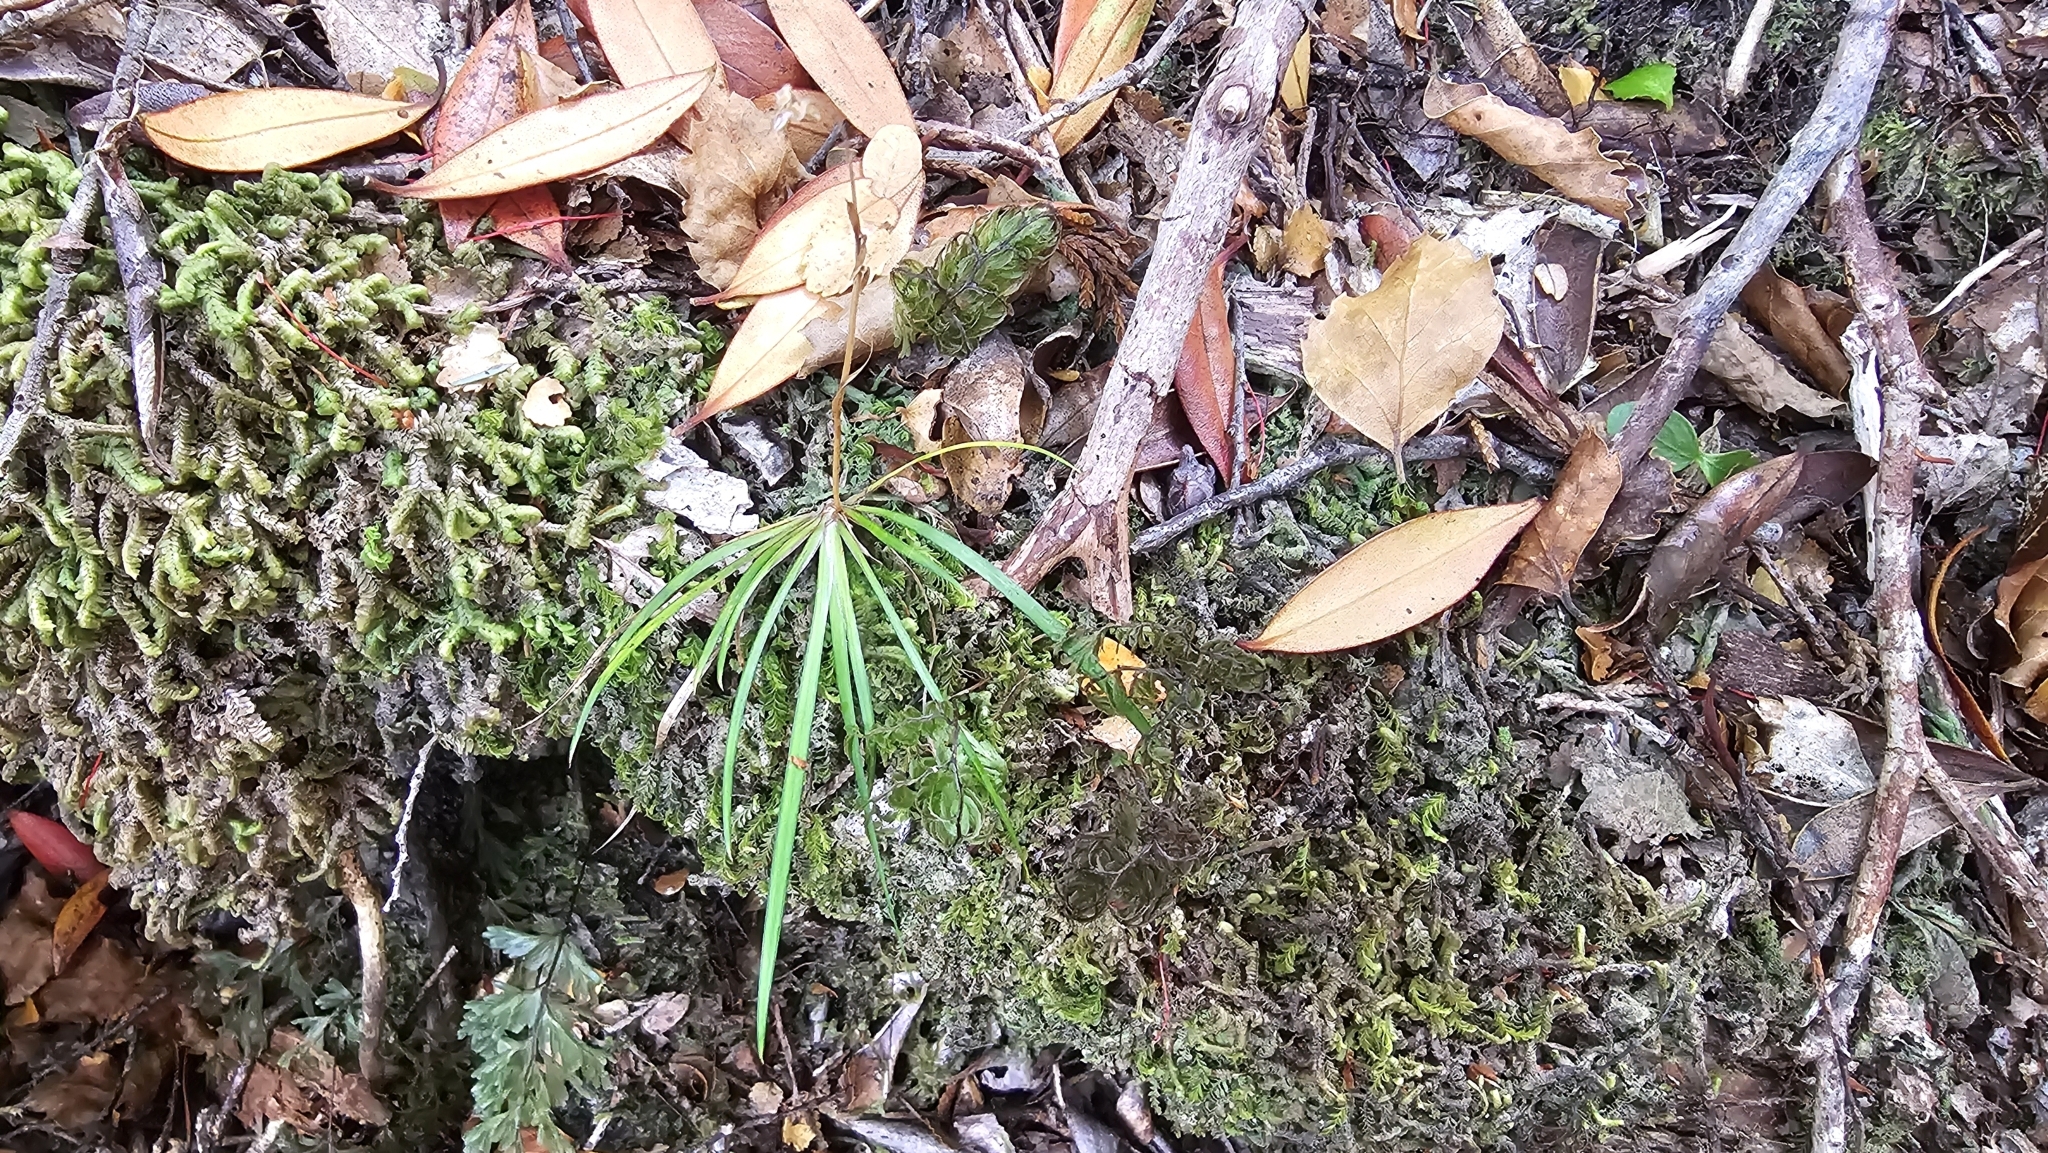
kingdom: Plantae
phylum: Tracheophyta
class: Liliopsida
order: Asparagales
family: Iridaceae
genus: Libertia
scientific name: Libertia micrantha
